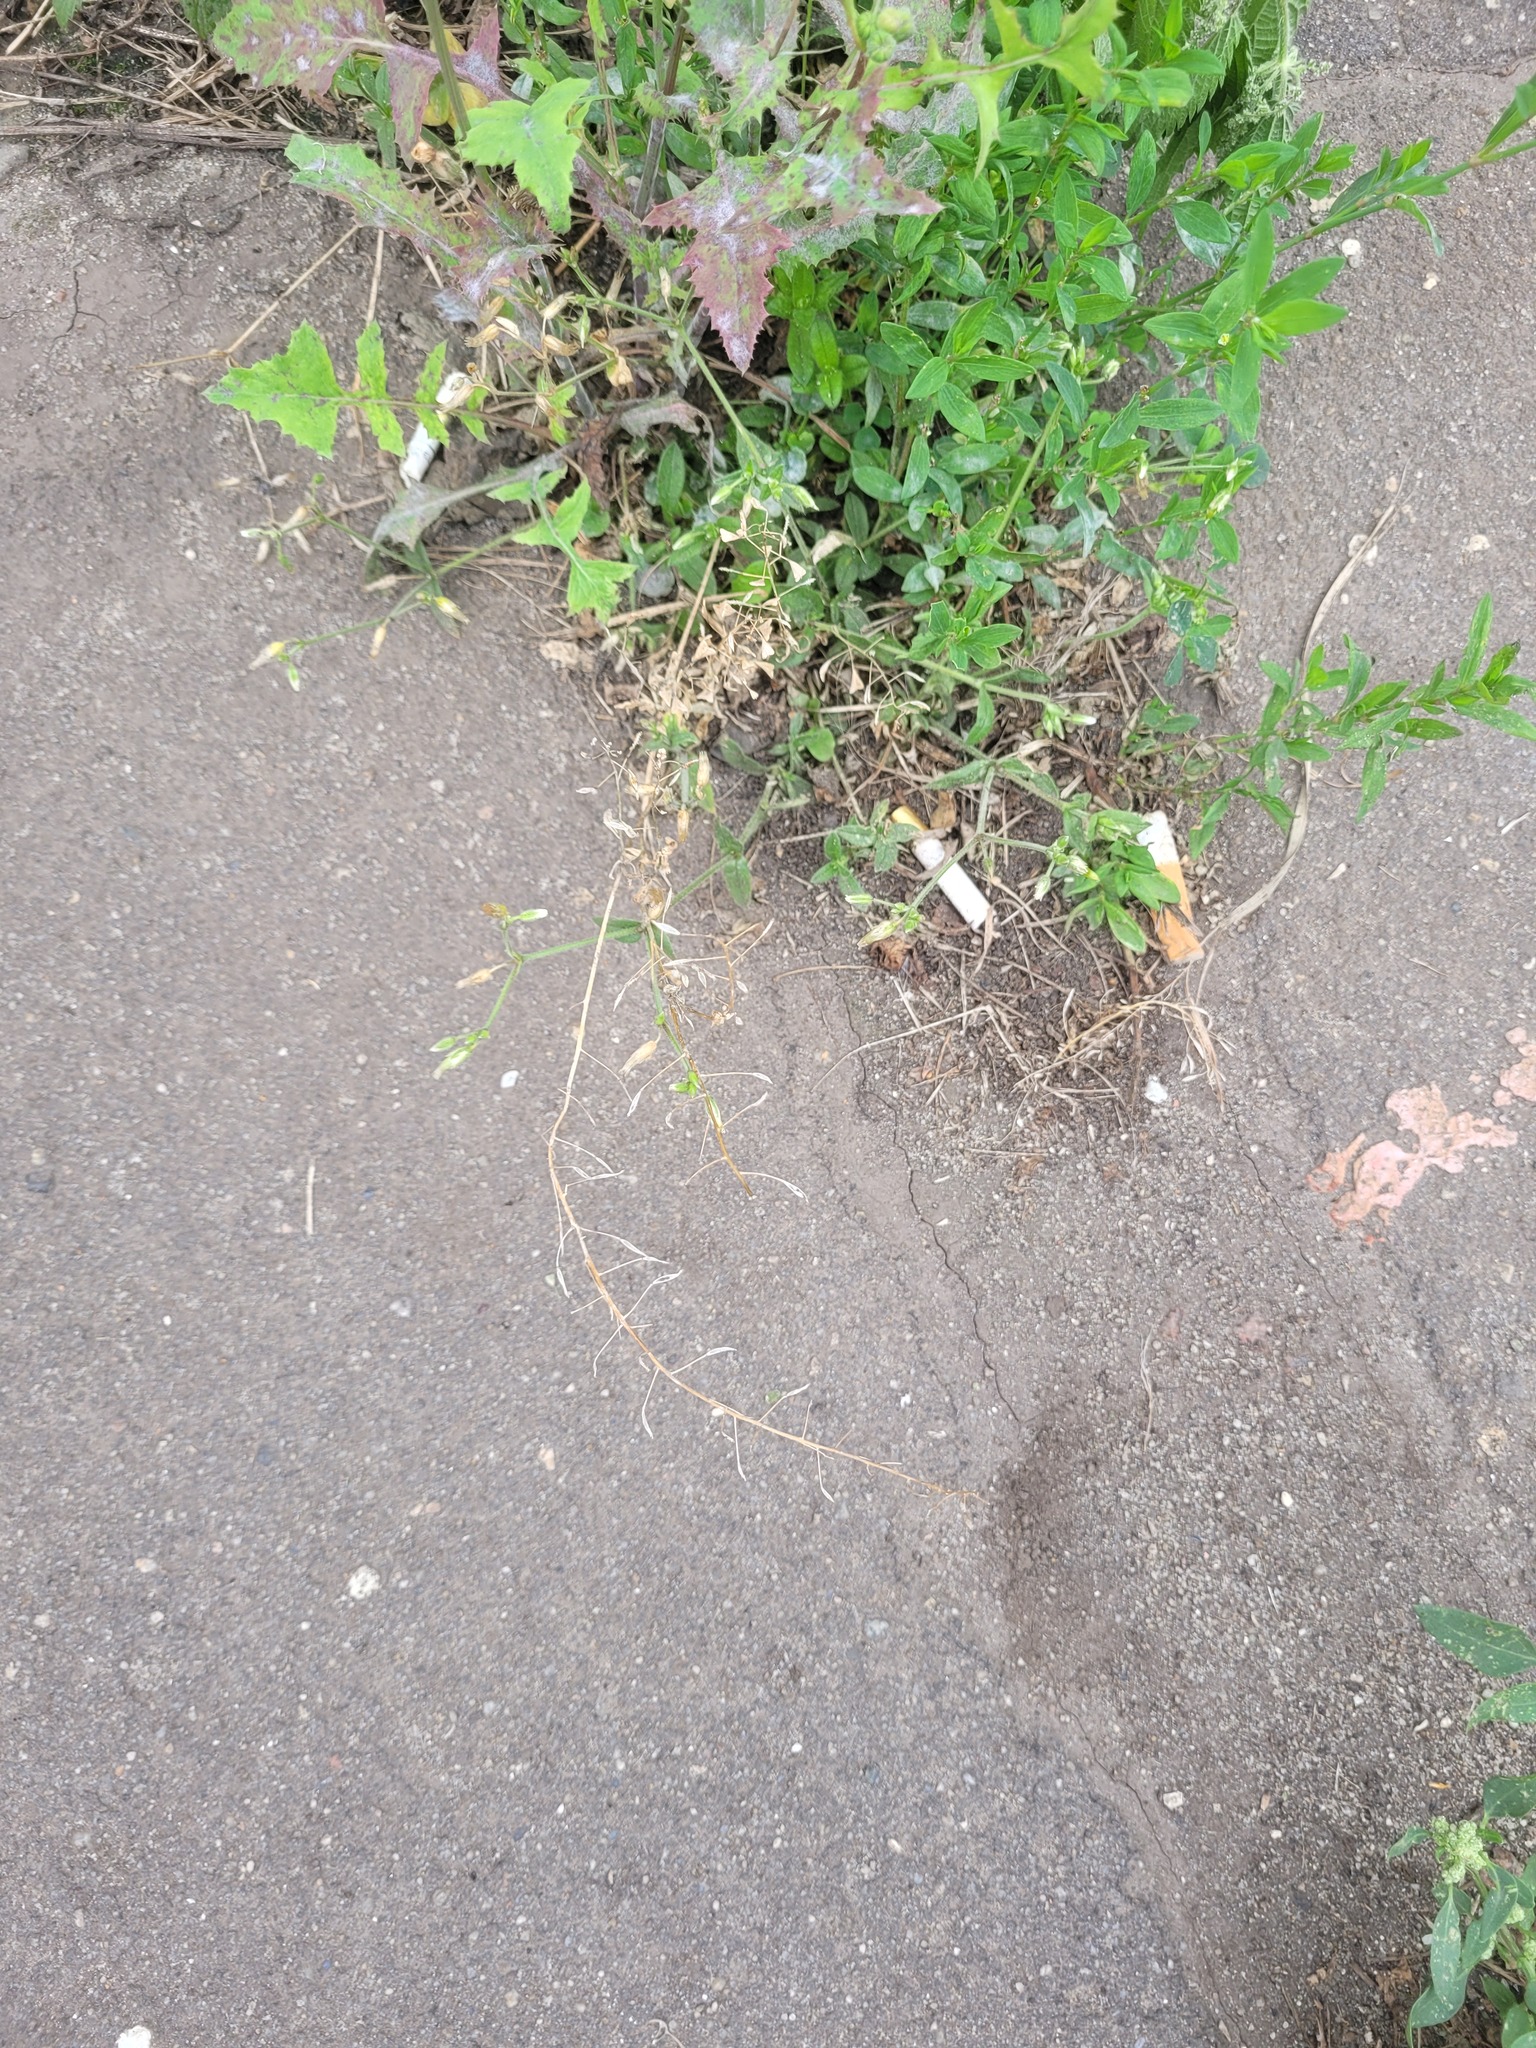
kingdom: Plantae
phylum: Tracheophyta
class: Magnoliopsida
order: Brassicales
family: Brassicaceae
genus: Capsella
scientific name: Capsella bursa-pastoris
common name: Shepherd's purse
